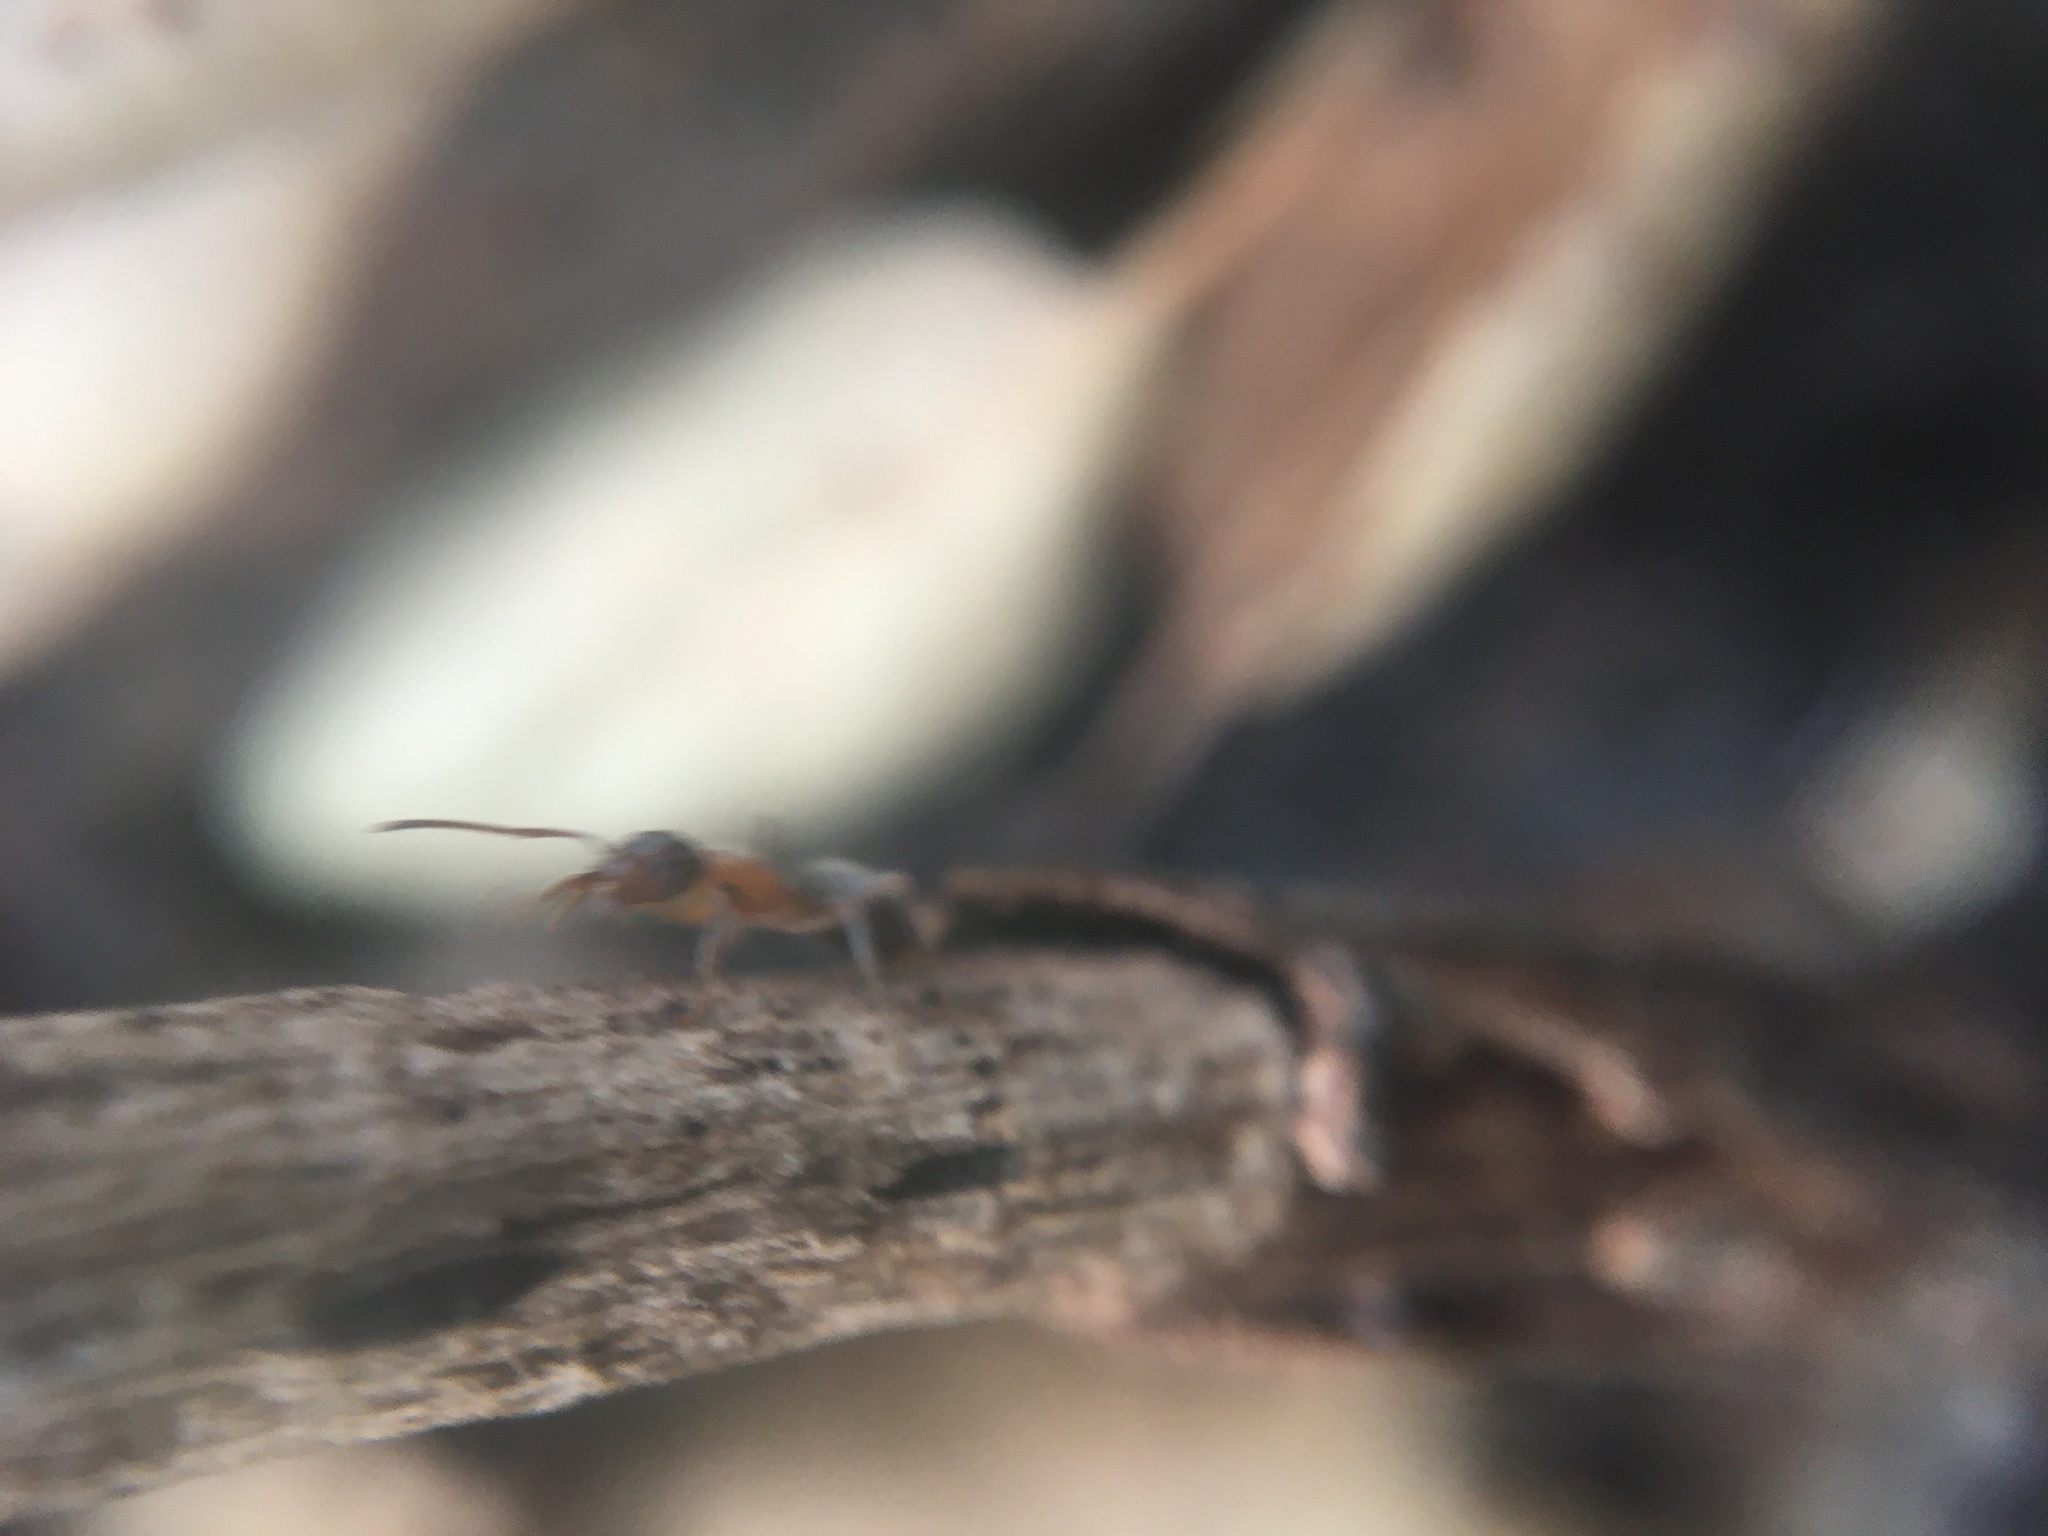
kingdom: Animalia
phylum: Arthropoda
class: Insecta
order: Hymenoptera
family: Formicidae
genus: Liometopum
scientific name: Liometopum occidentale
